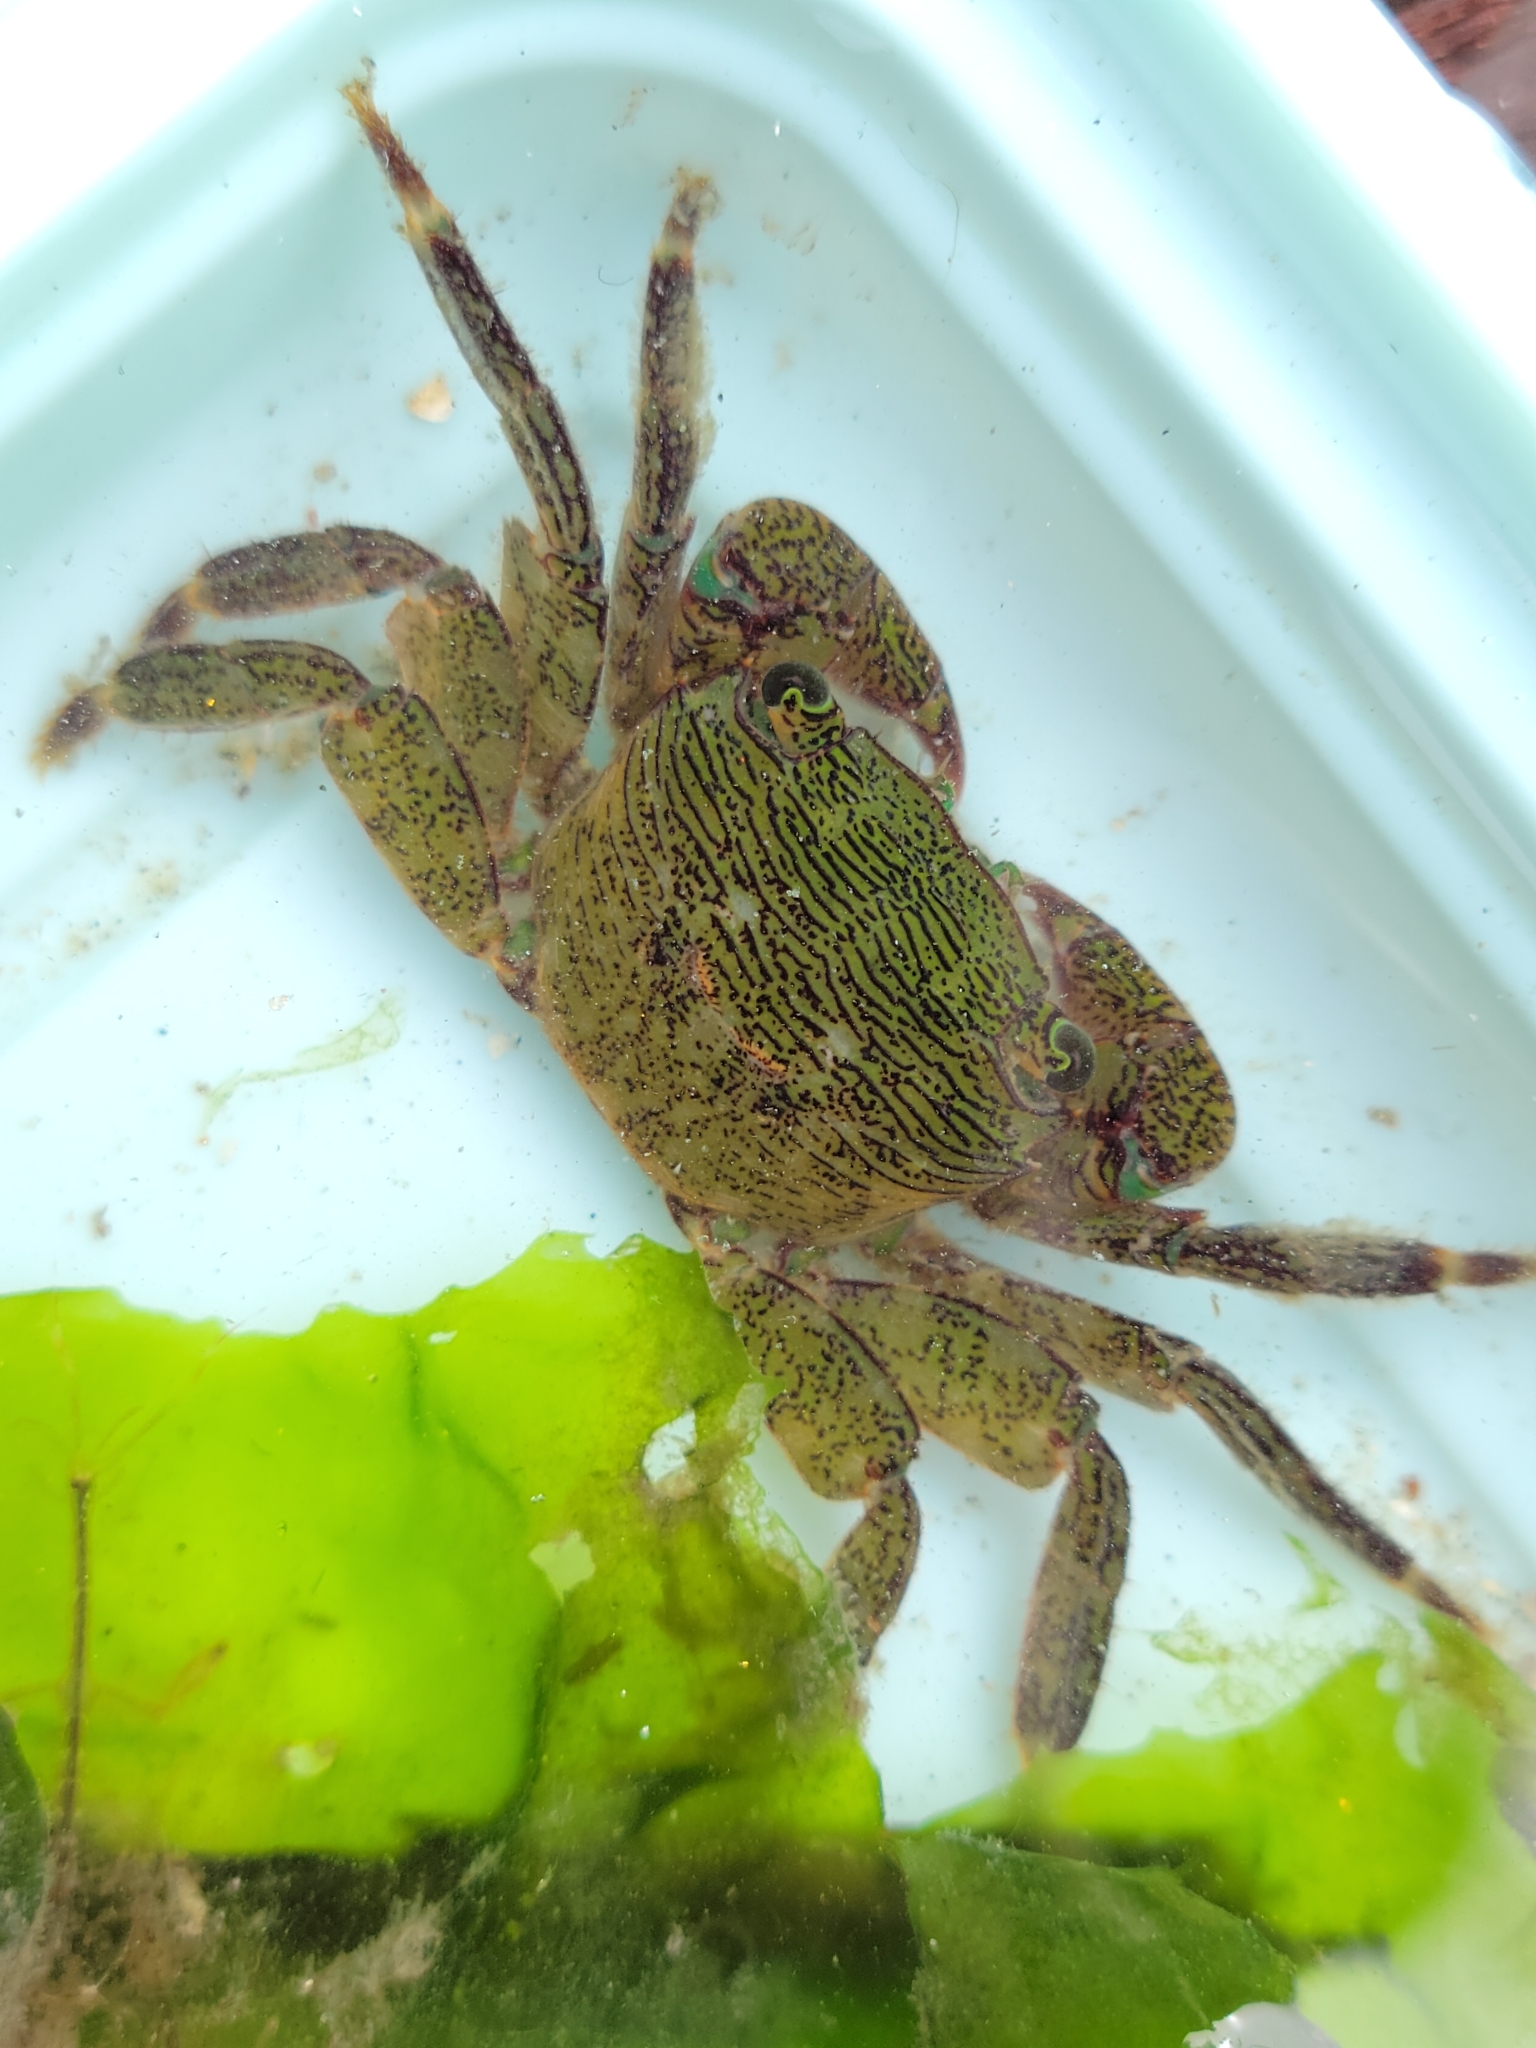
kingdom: Animalia
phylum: Arthropoda
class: Malacostraca
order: Decapoda
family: Grapsidae
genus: Pachygrapsus
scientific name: Pachygrapsus crassipes
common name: Striped shore crab
